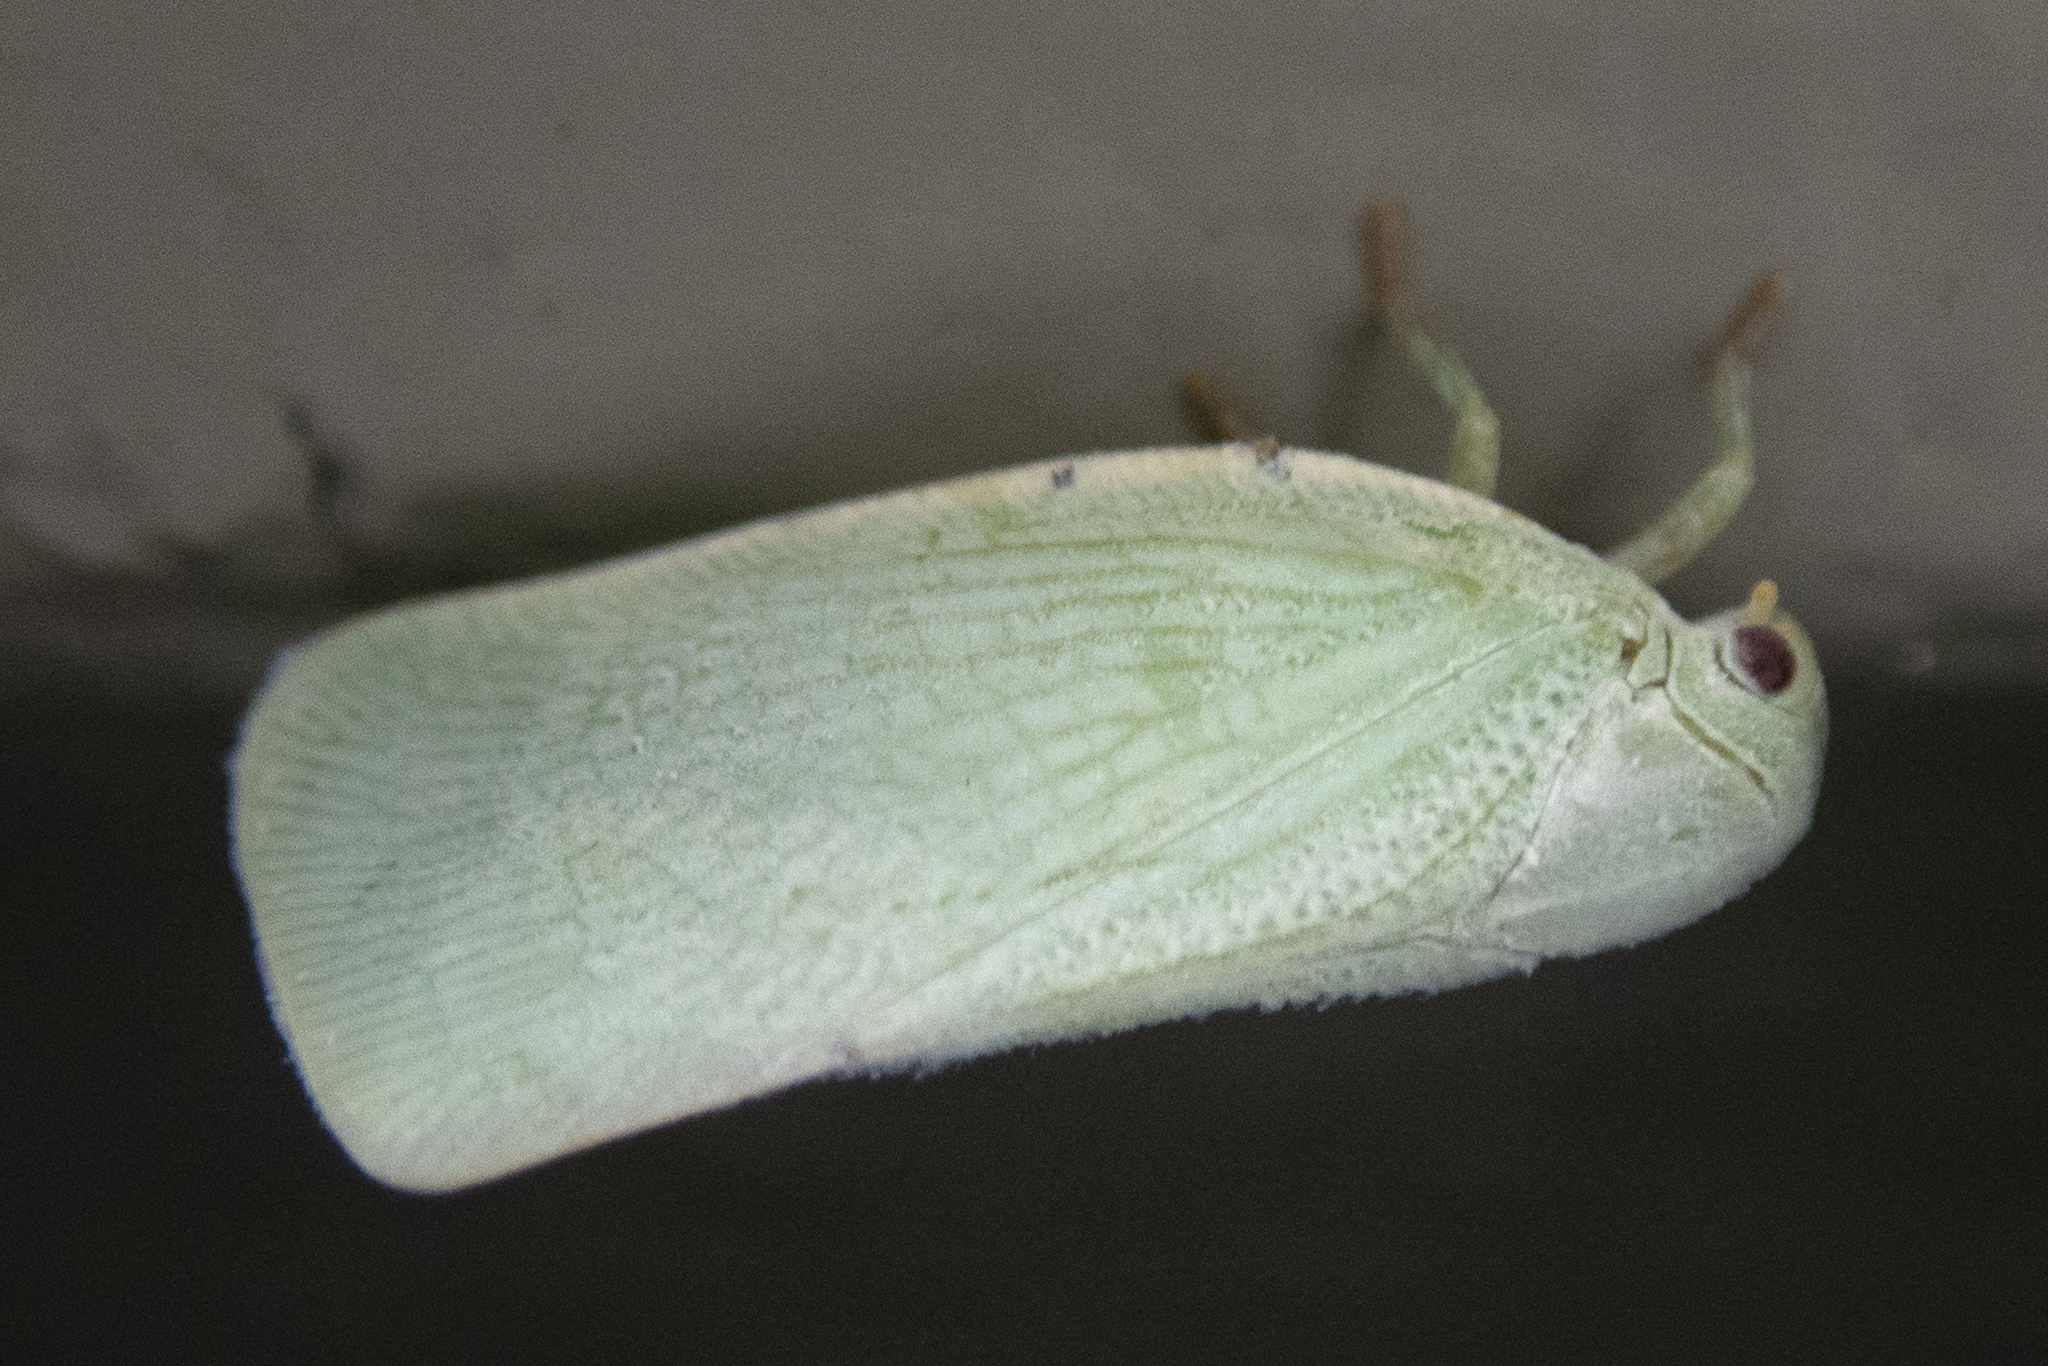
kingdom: Animalia
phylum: Arthropoda
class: Insecta
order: Hemiptera
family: Flatidae
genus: Flatormenis
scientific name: Flatormenis proxima
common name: Northern flatid planthopper
